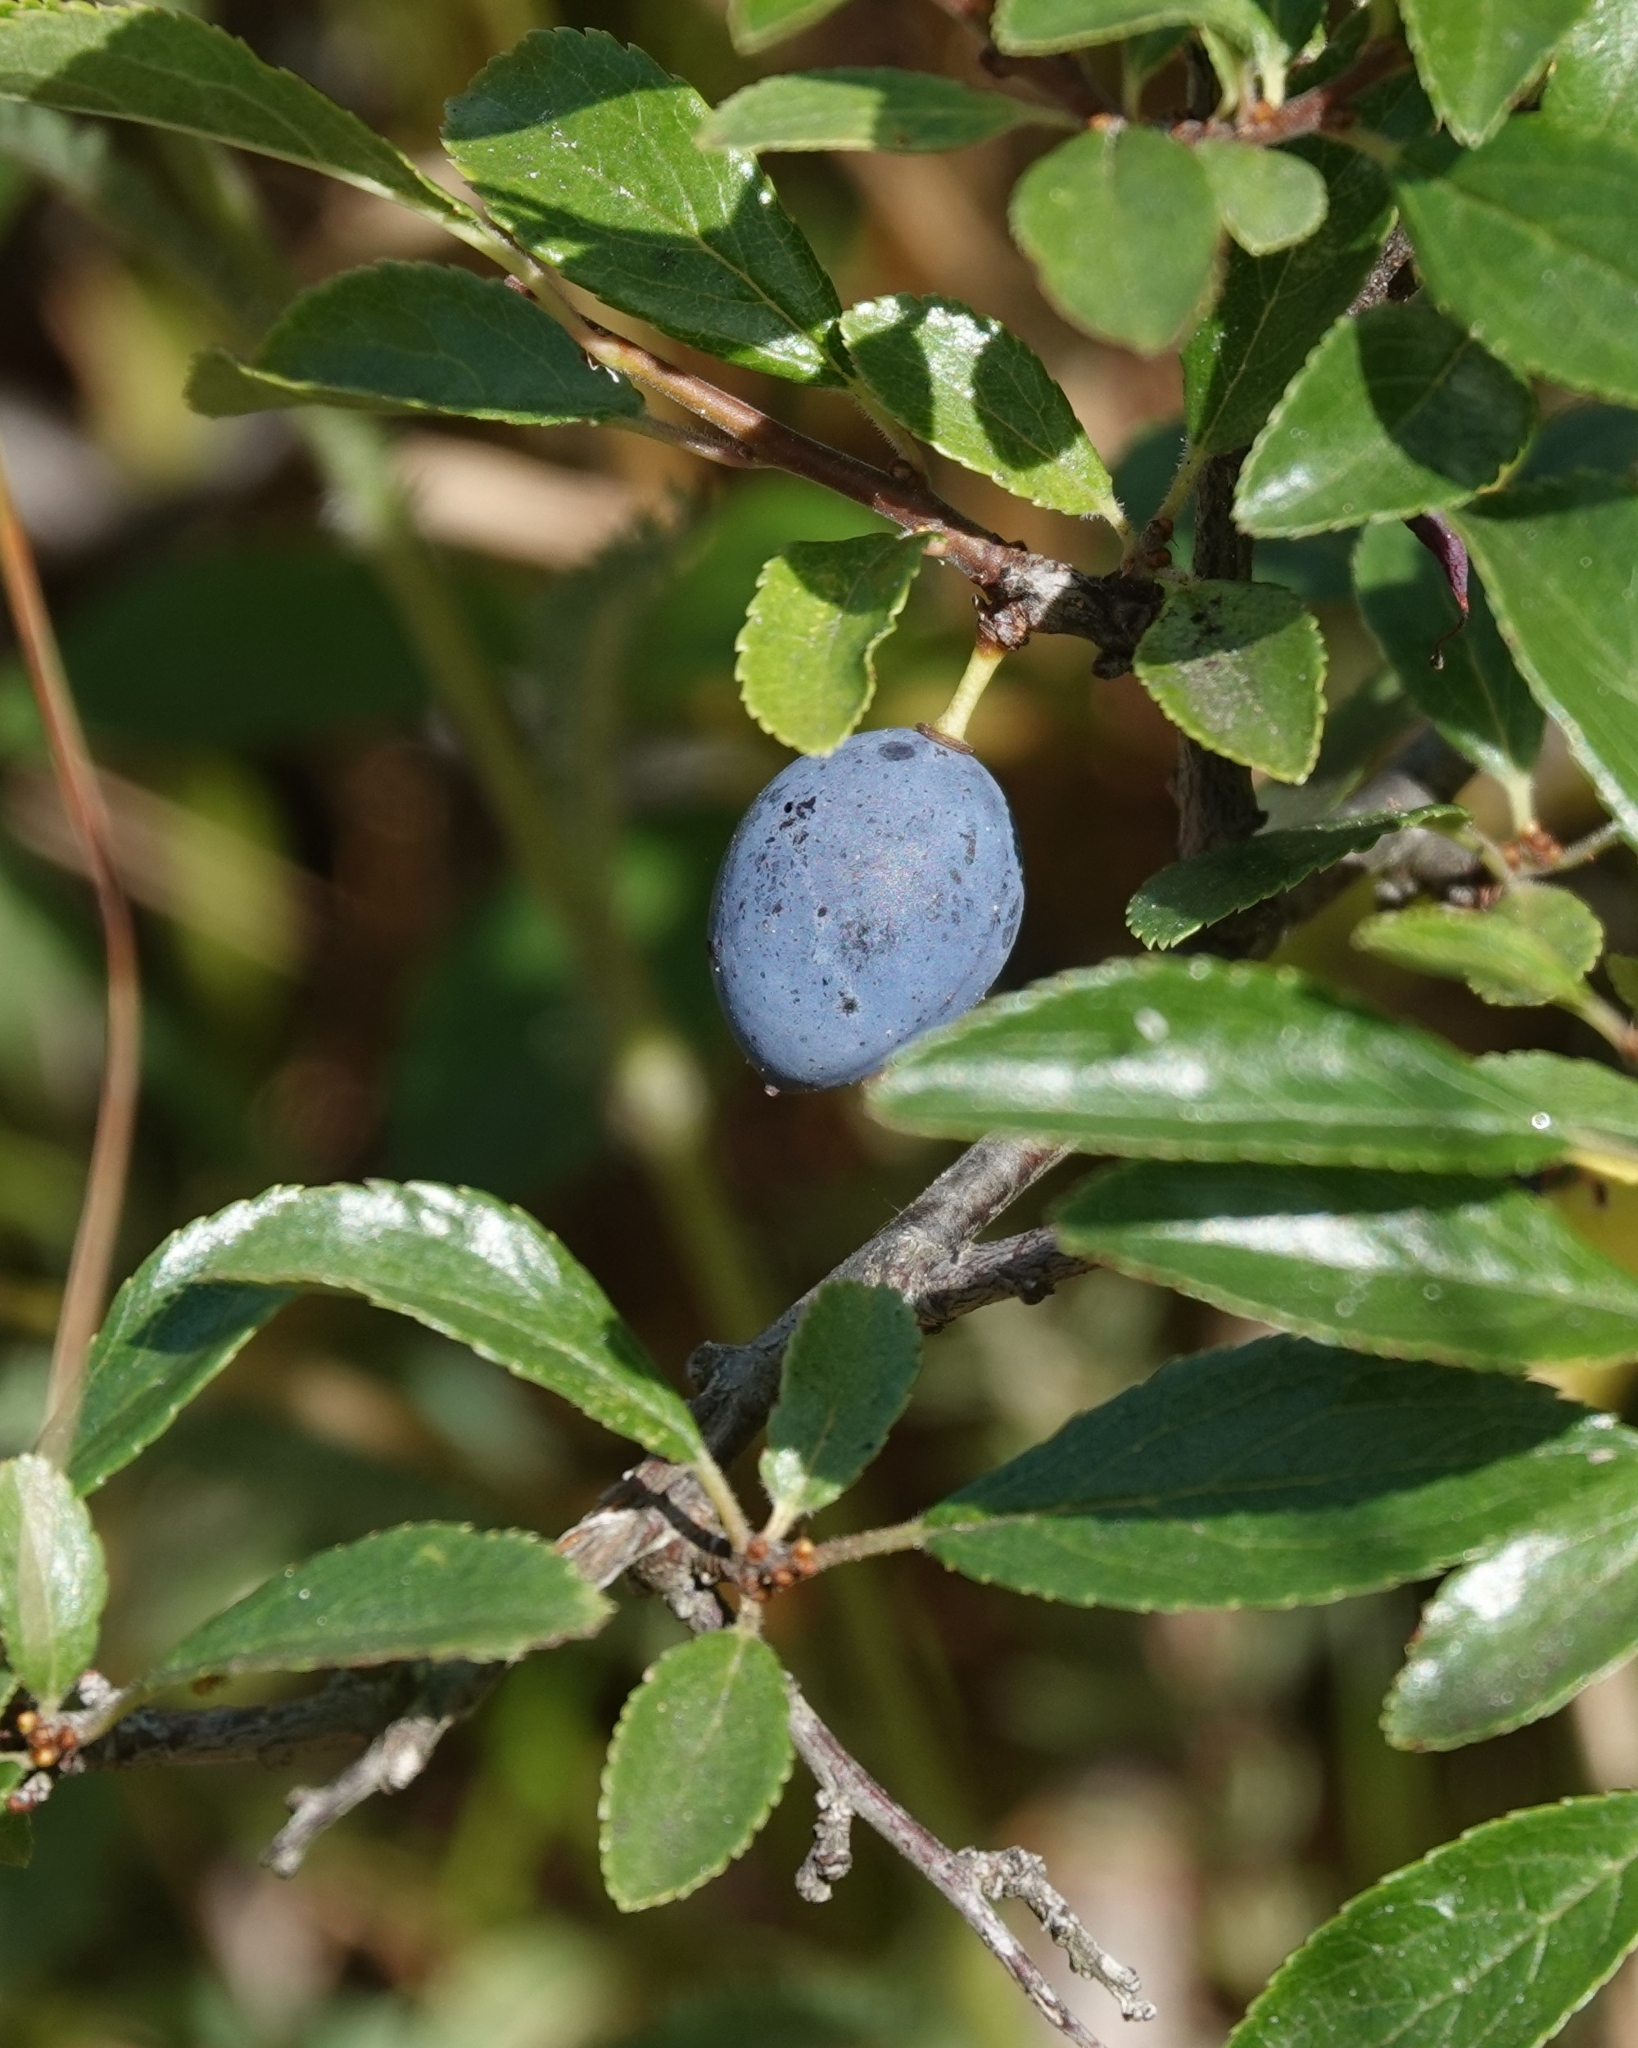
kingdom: Plantae
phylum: Tracheophyta
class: Magnoliopsida
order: Rosales
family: Rosaceae
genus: Prunus
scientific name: Prunus spinosa
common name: Blackthorn
